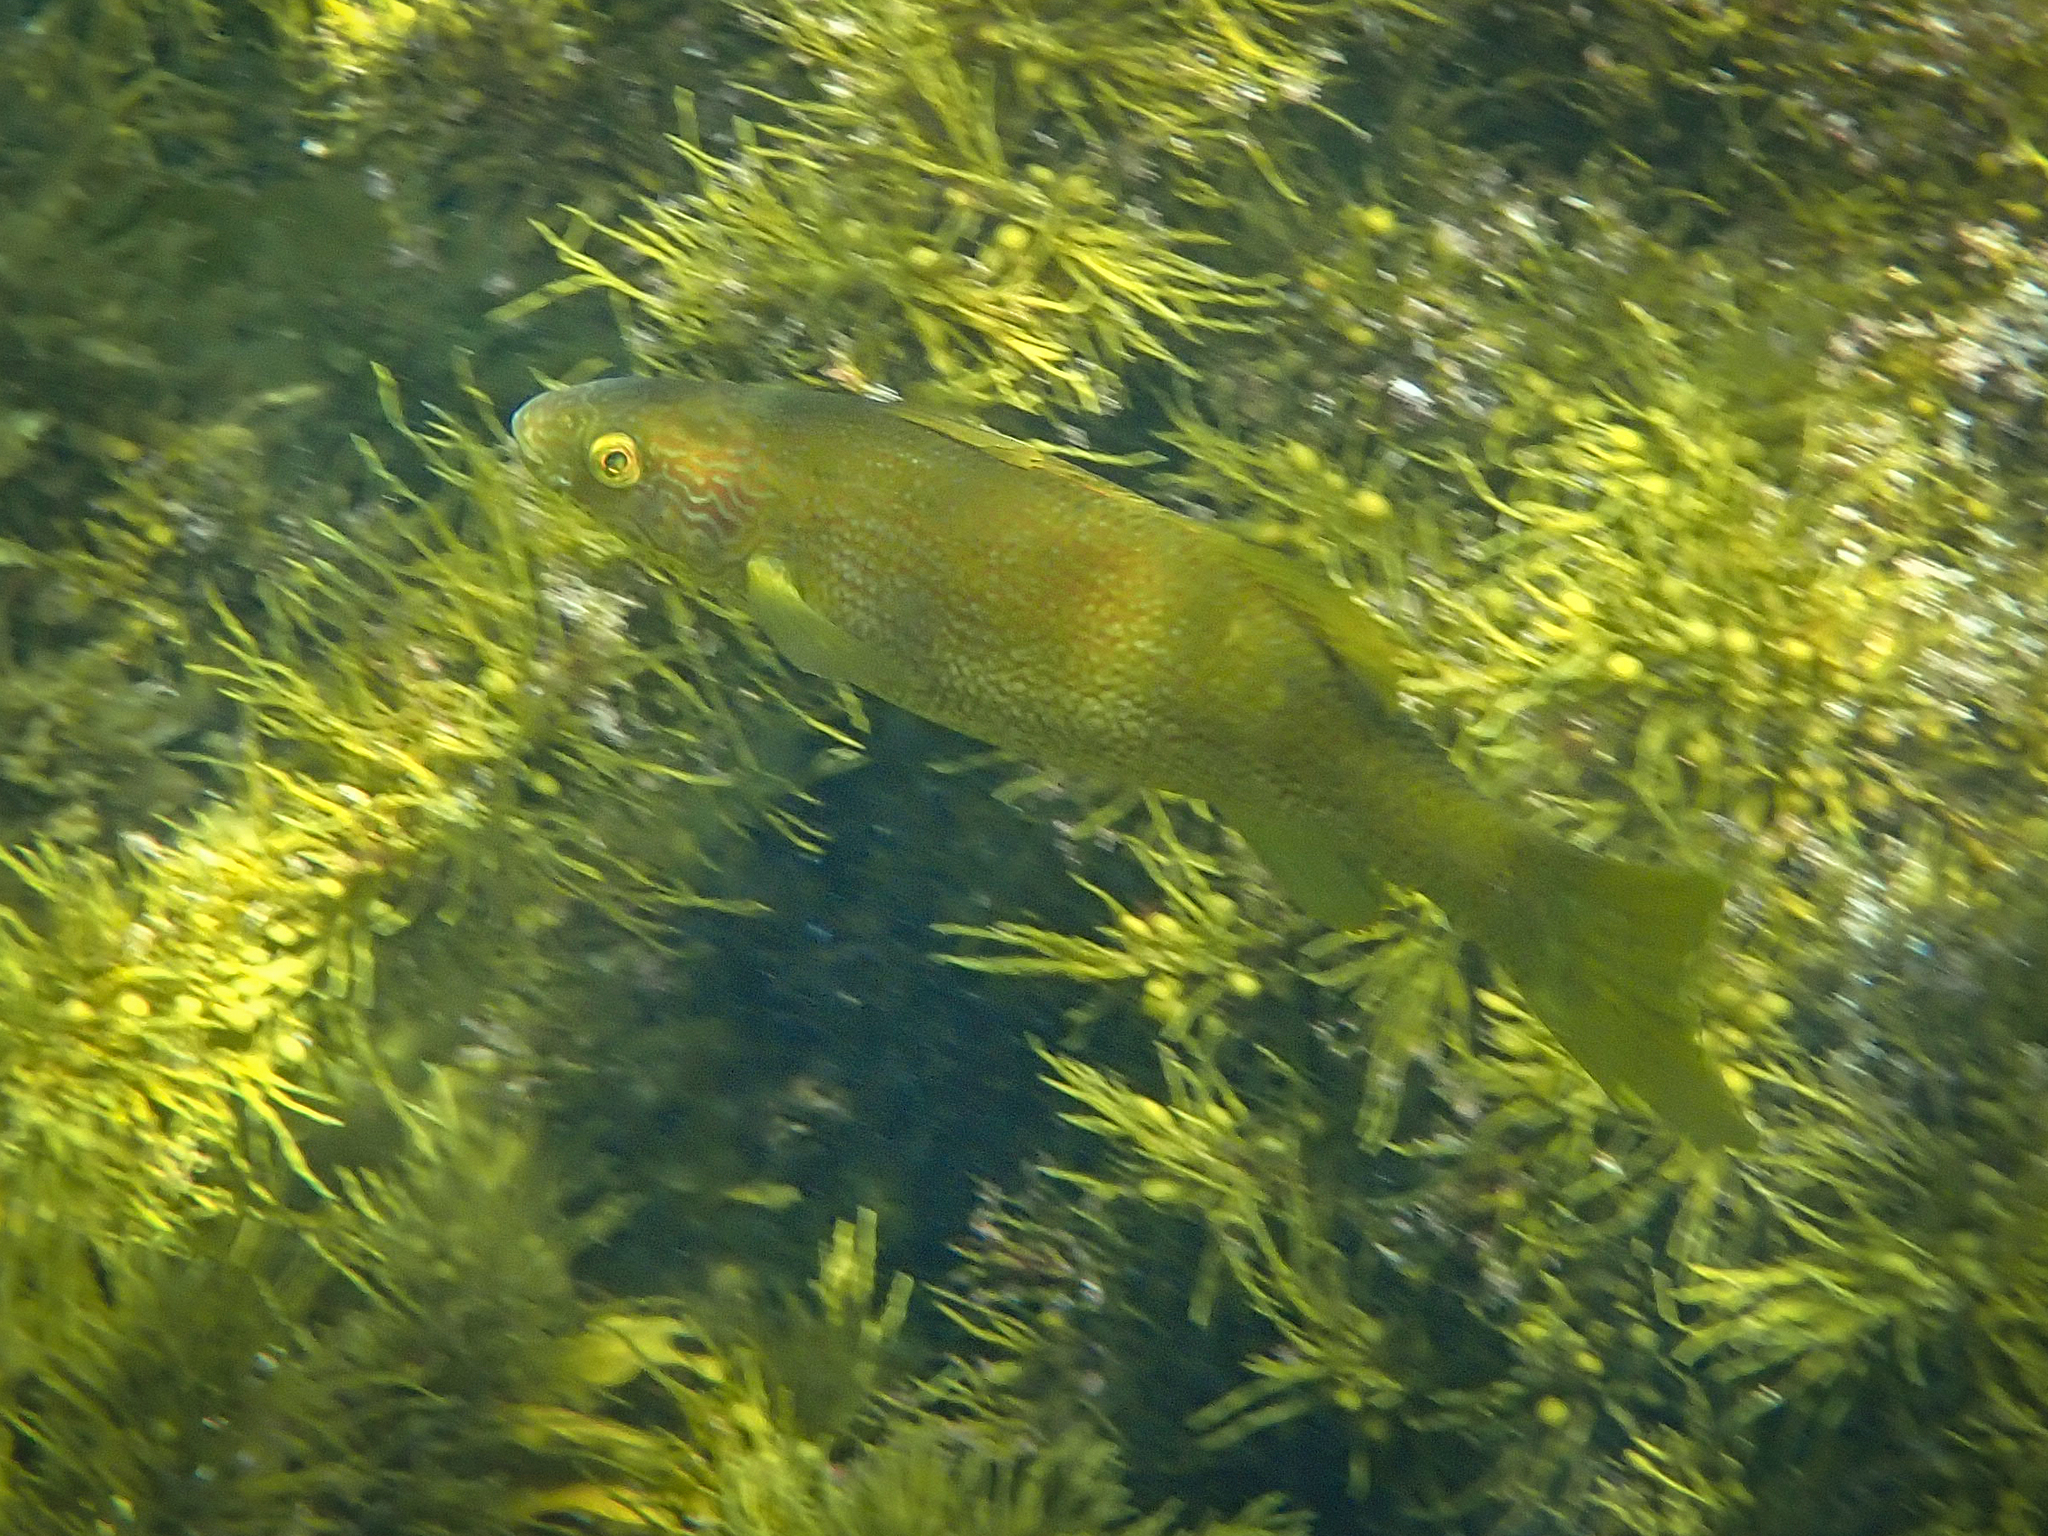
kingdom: Animalia
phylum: Chordata
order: Perciformes
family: Odacidae
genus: Olisthops
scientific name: Olisthops cyanomelas
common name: Herring cale
